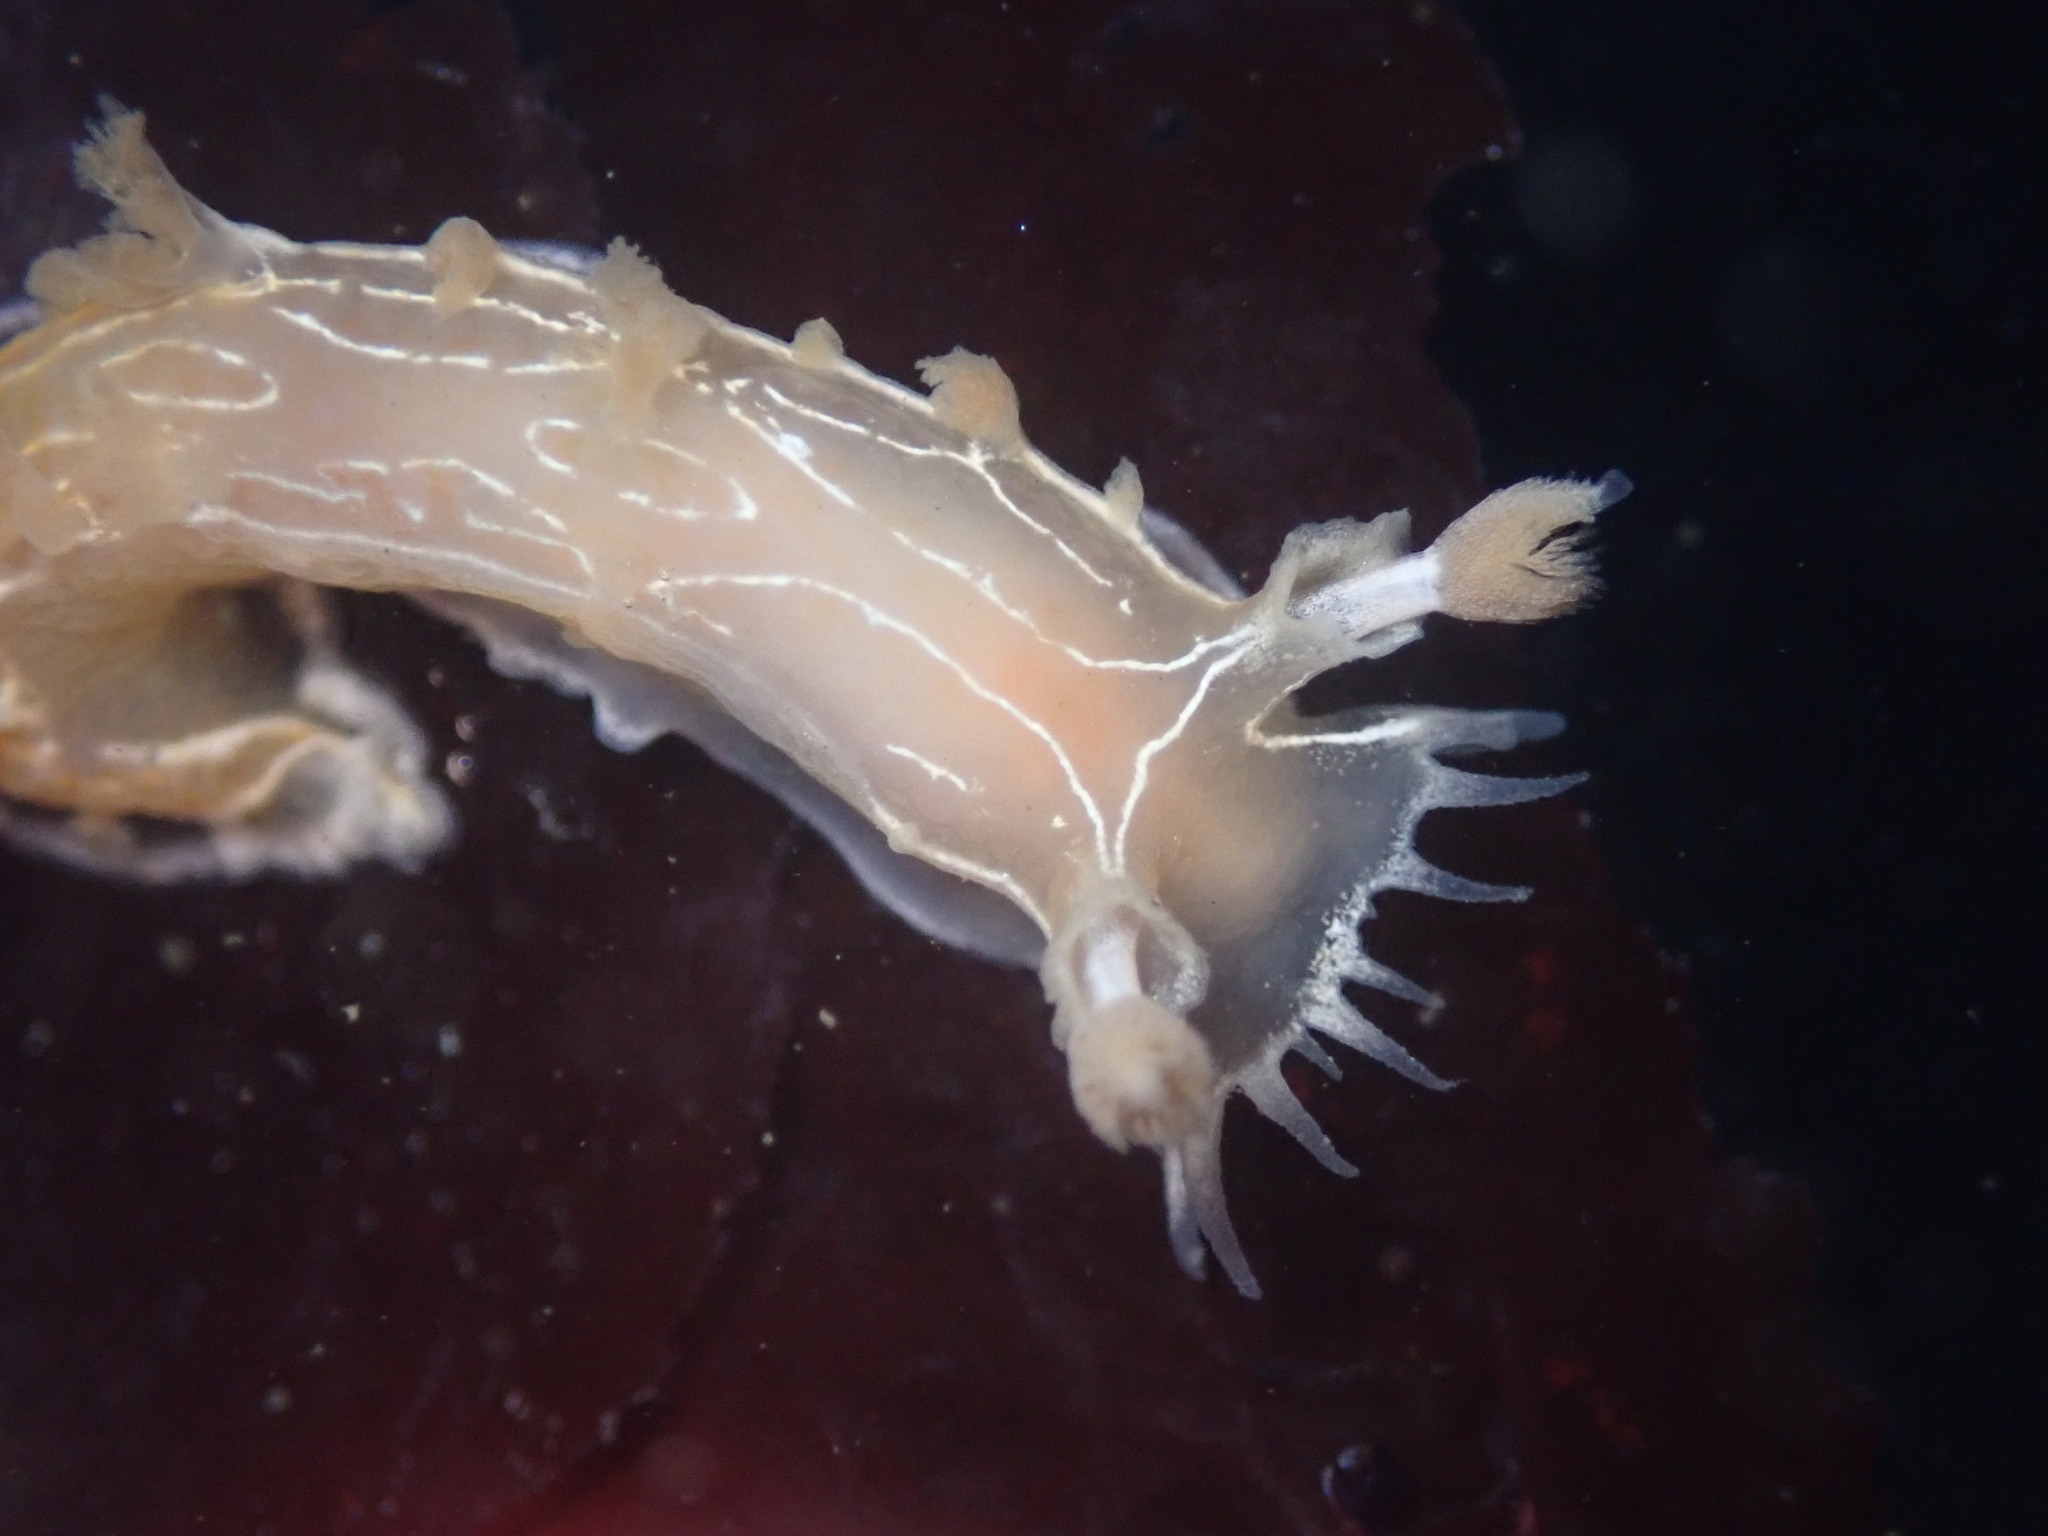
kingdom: Animalia
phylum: Mollusca
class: Gastropoda
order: Nudibranchia
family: Tritoniidae
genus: Tritonia
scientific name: Tritonia festiva
